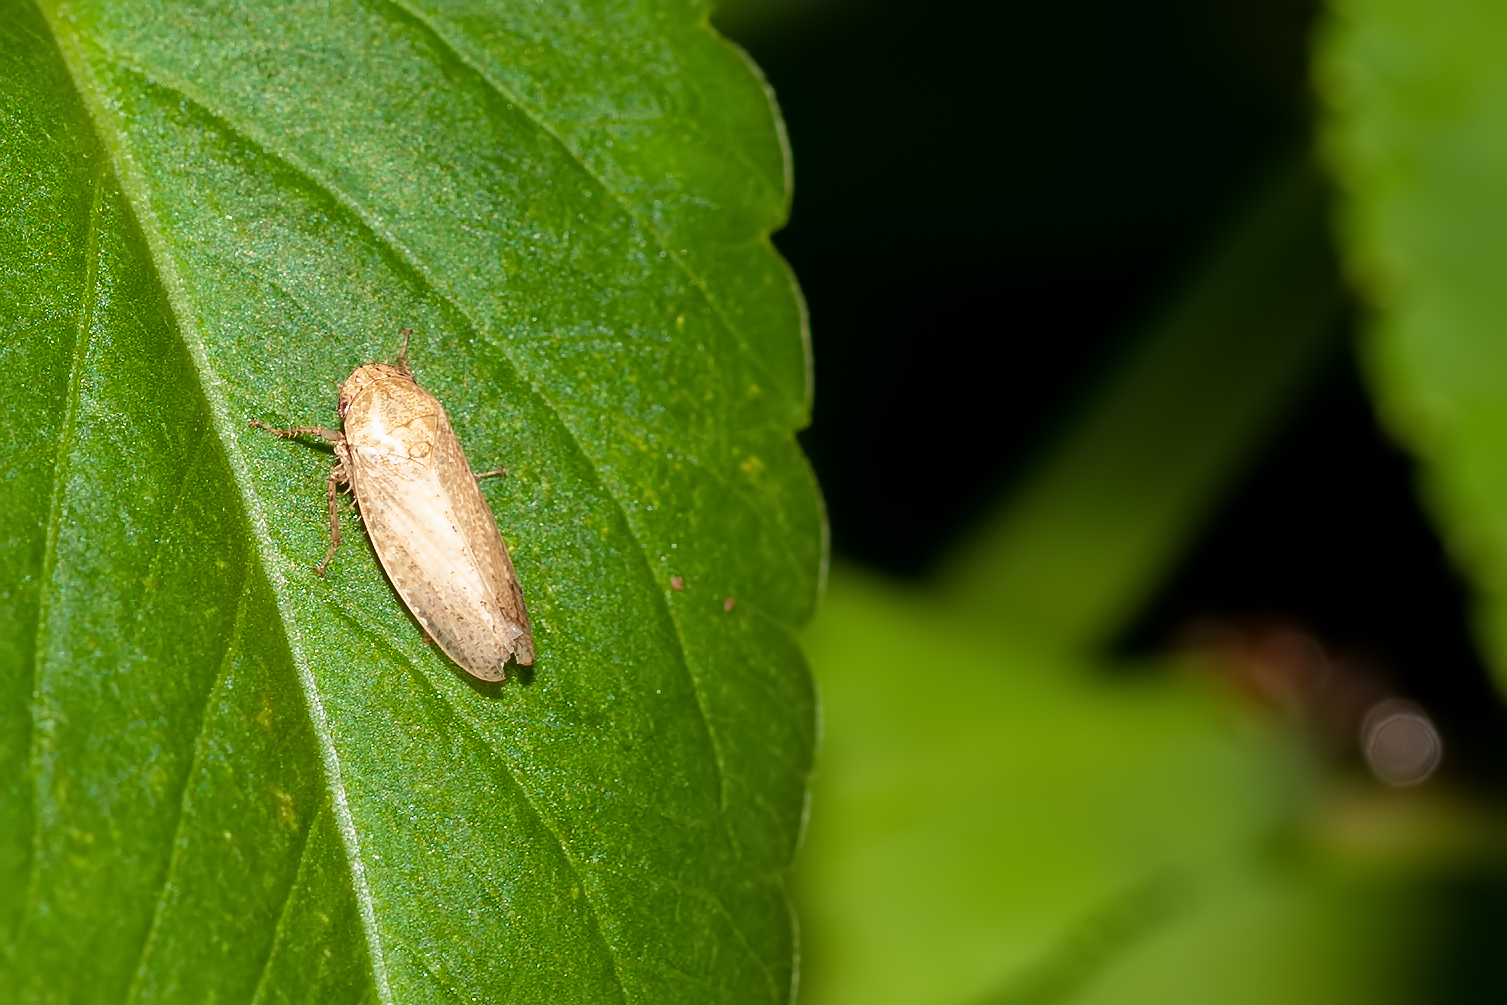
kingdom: Animalia
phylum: Arthropoda
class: Insecta
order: Hemiptera
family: Cicadellidae
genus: Curtara
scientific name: Curtara insularis
